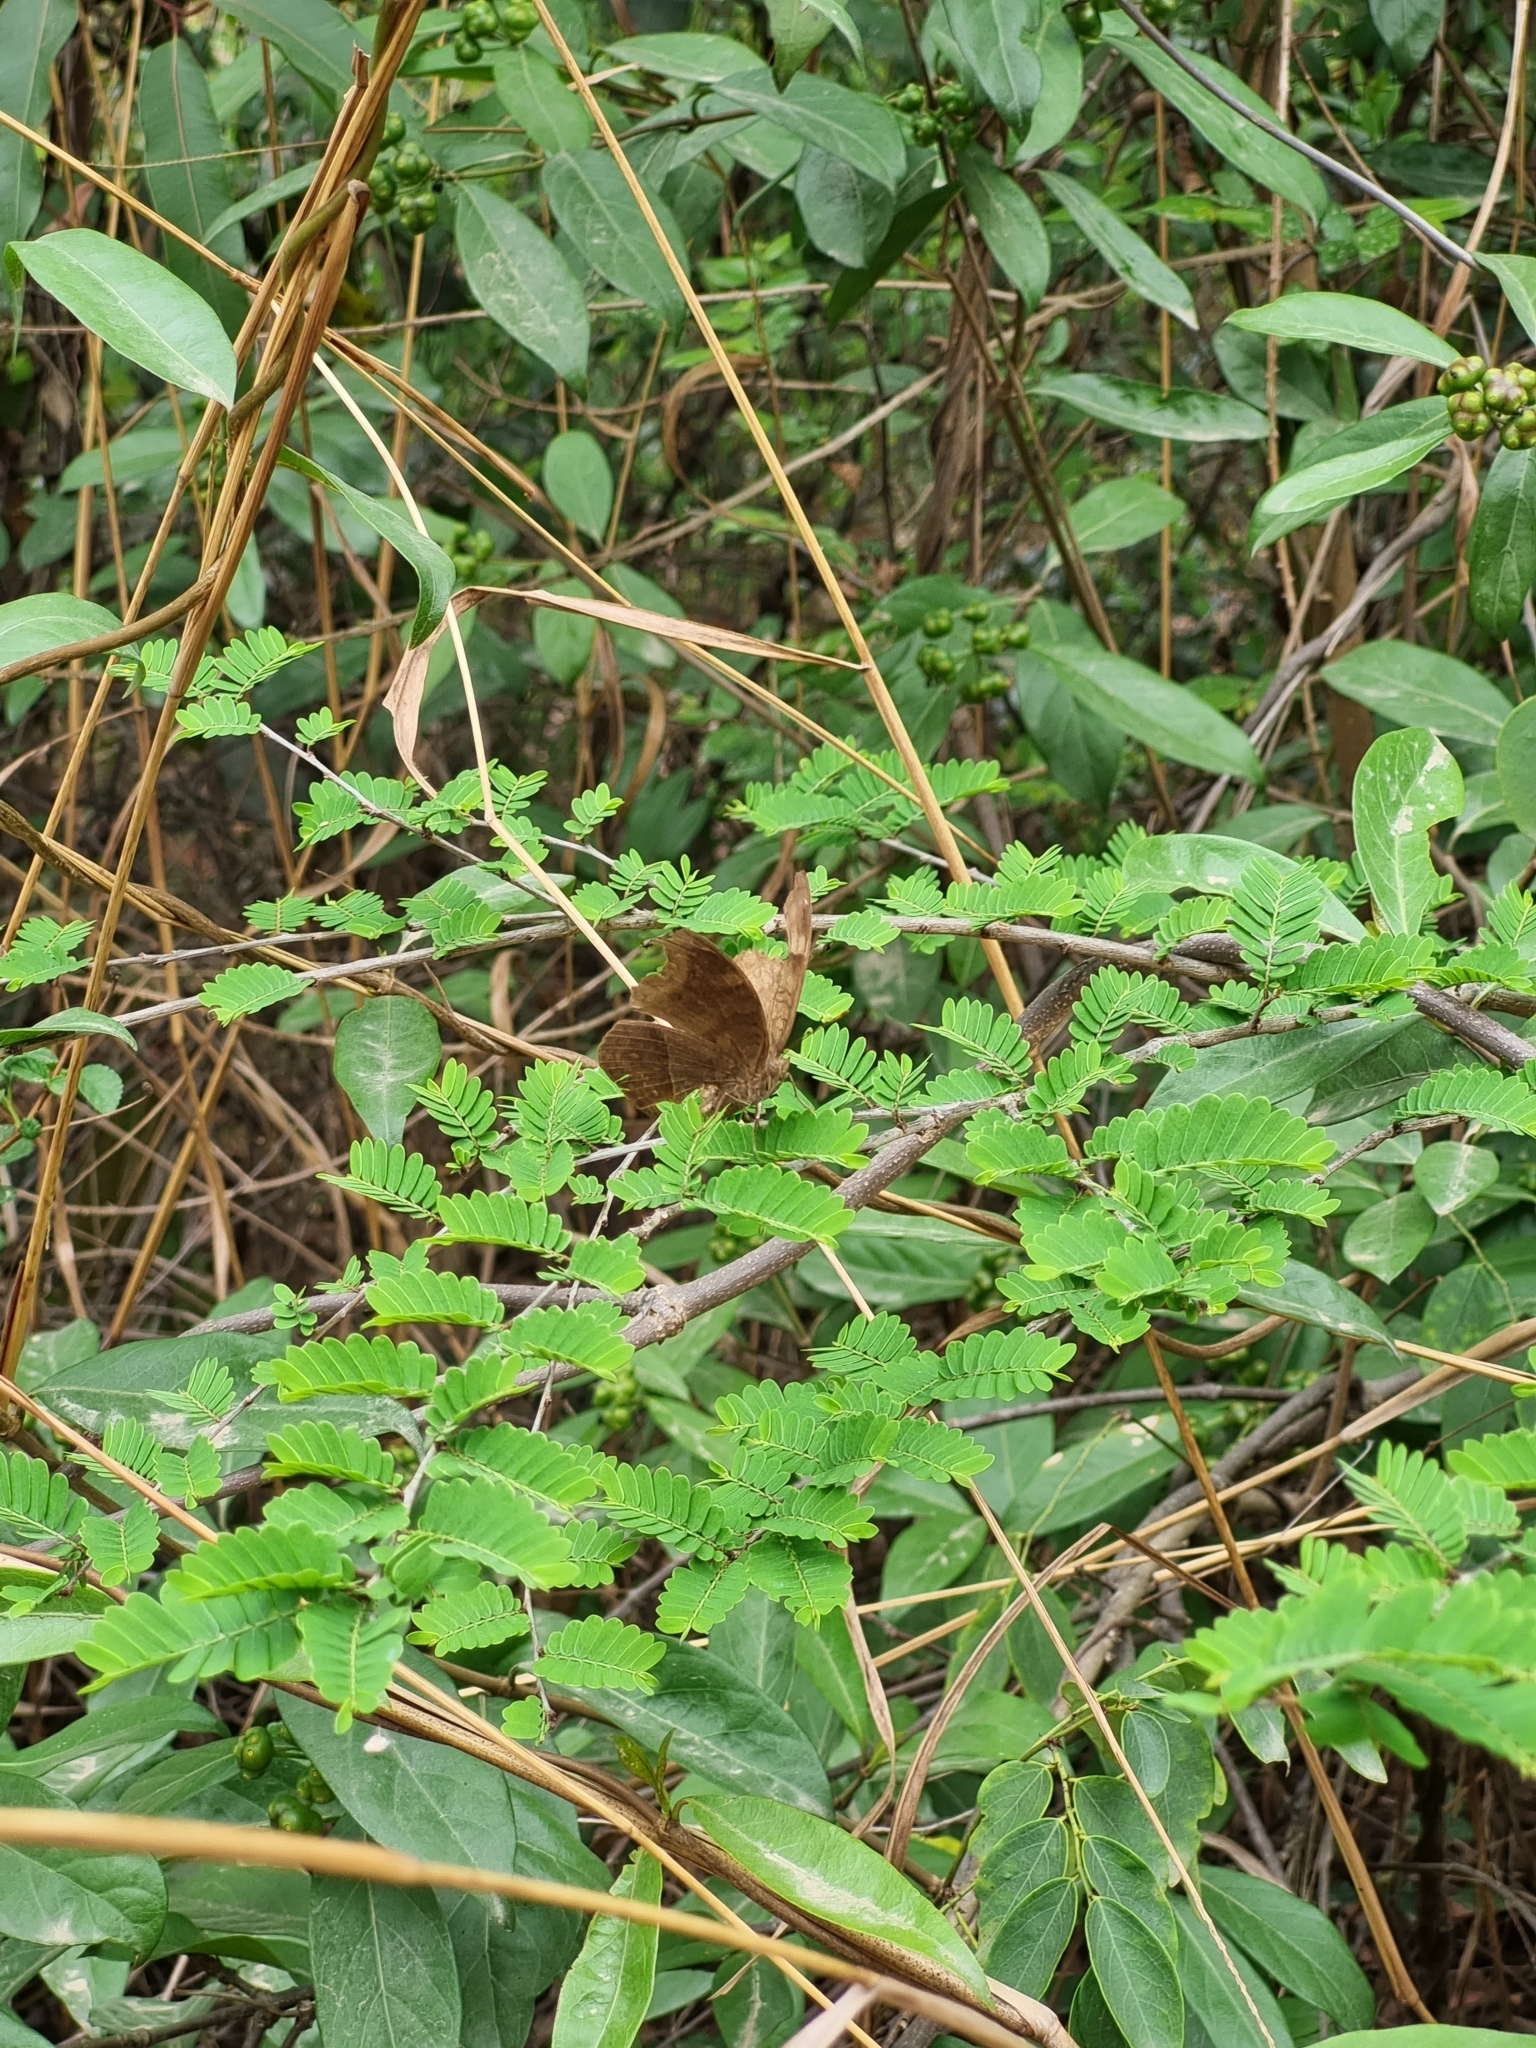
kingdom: Animalia
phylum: Arthropoda
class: Insecta
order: Lepidoptera
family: Nymphalidae
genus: Junonia
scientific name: Junonia iphita
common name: Chocolate pansy
